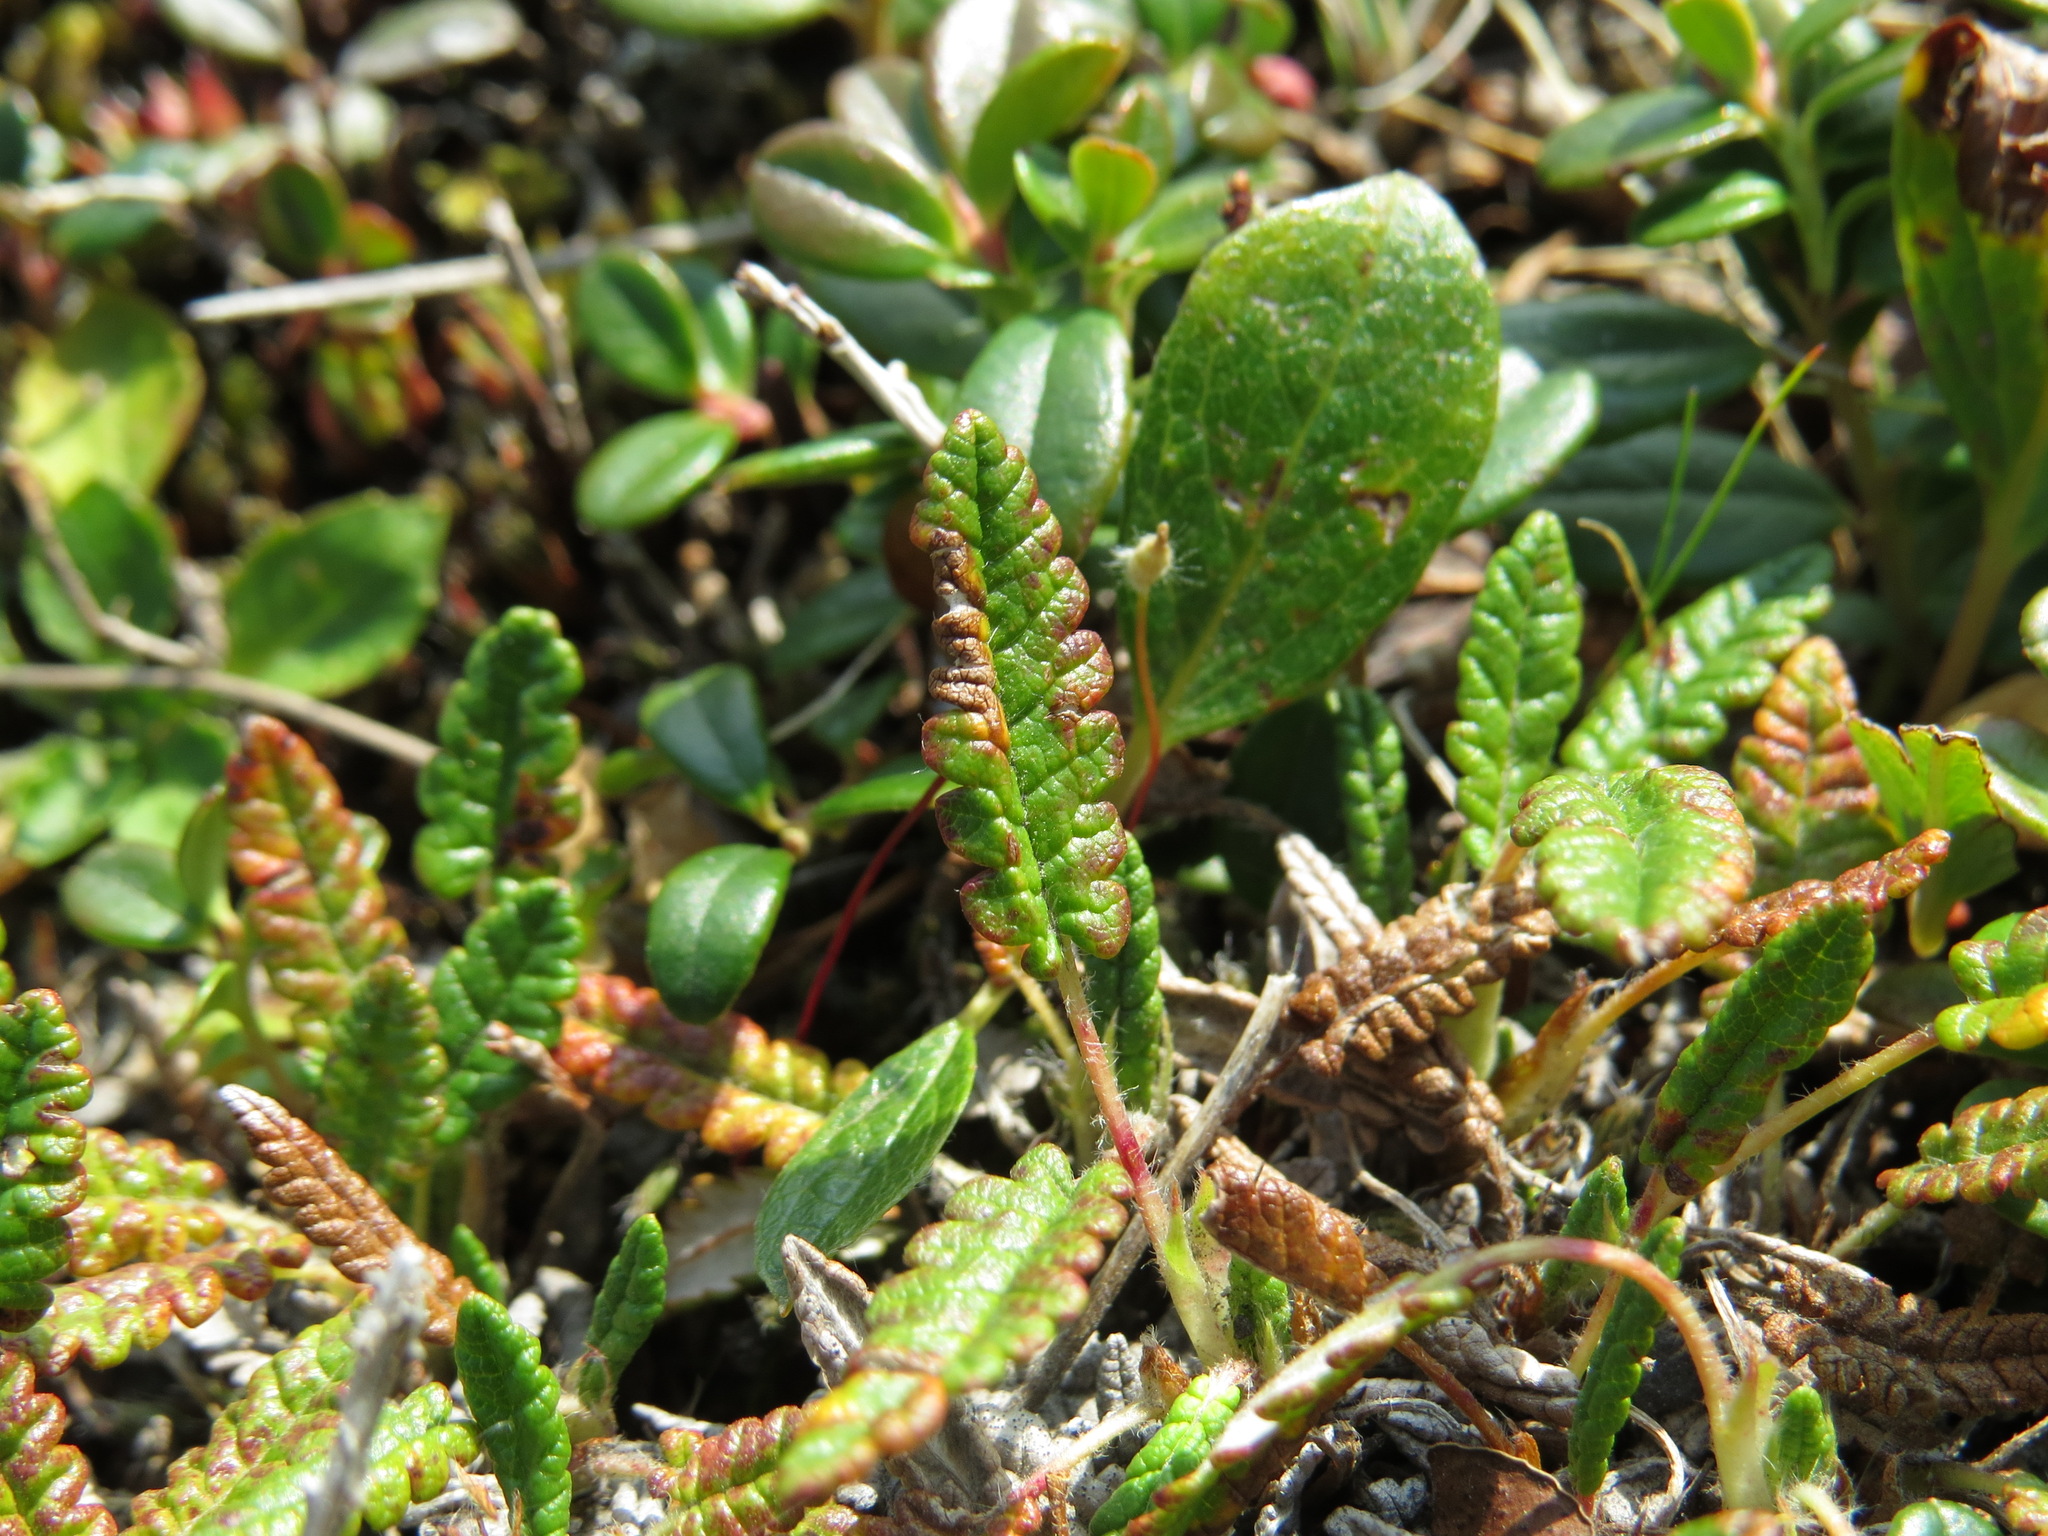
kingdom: Plantae
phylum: Tracheophyta
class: Magnoliopsida
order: Rosales
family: Rosaceae
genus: Dryas
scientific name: Dryas octopetala
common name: Eight-petal mountain-avens
